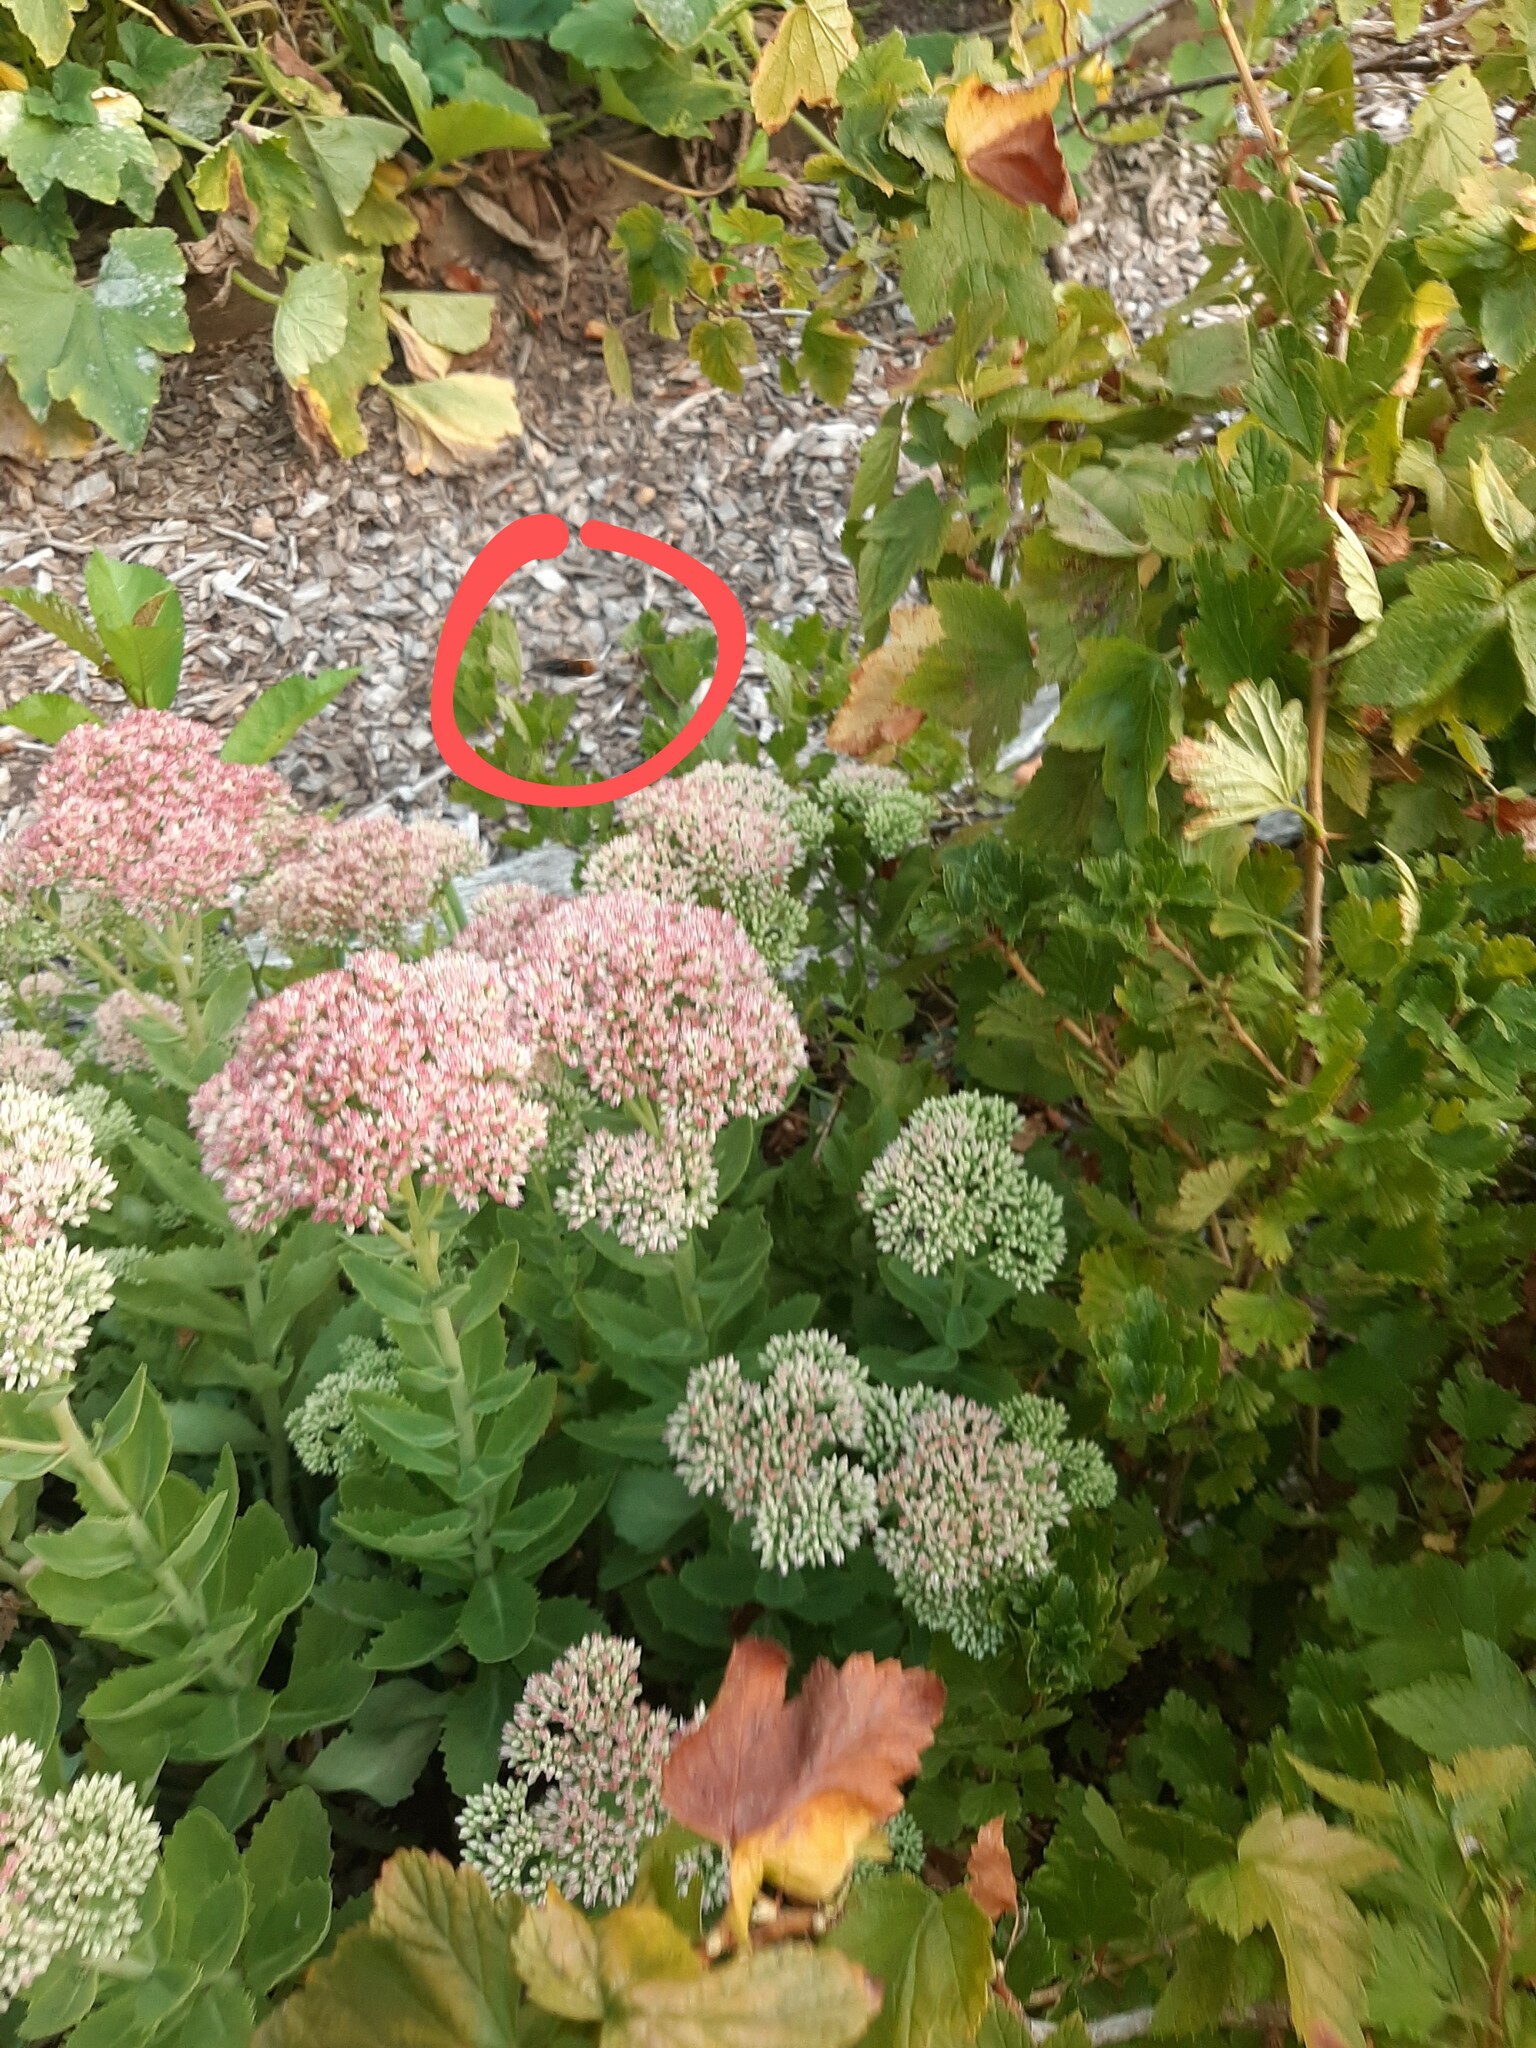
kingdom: Animalia
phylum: Arthropoda
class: Insecta
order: Hymenoptera
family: Vespidae
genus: Vespa
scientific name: Vespa velutina
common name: Asian hornet
